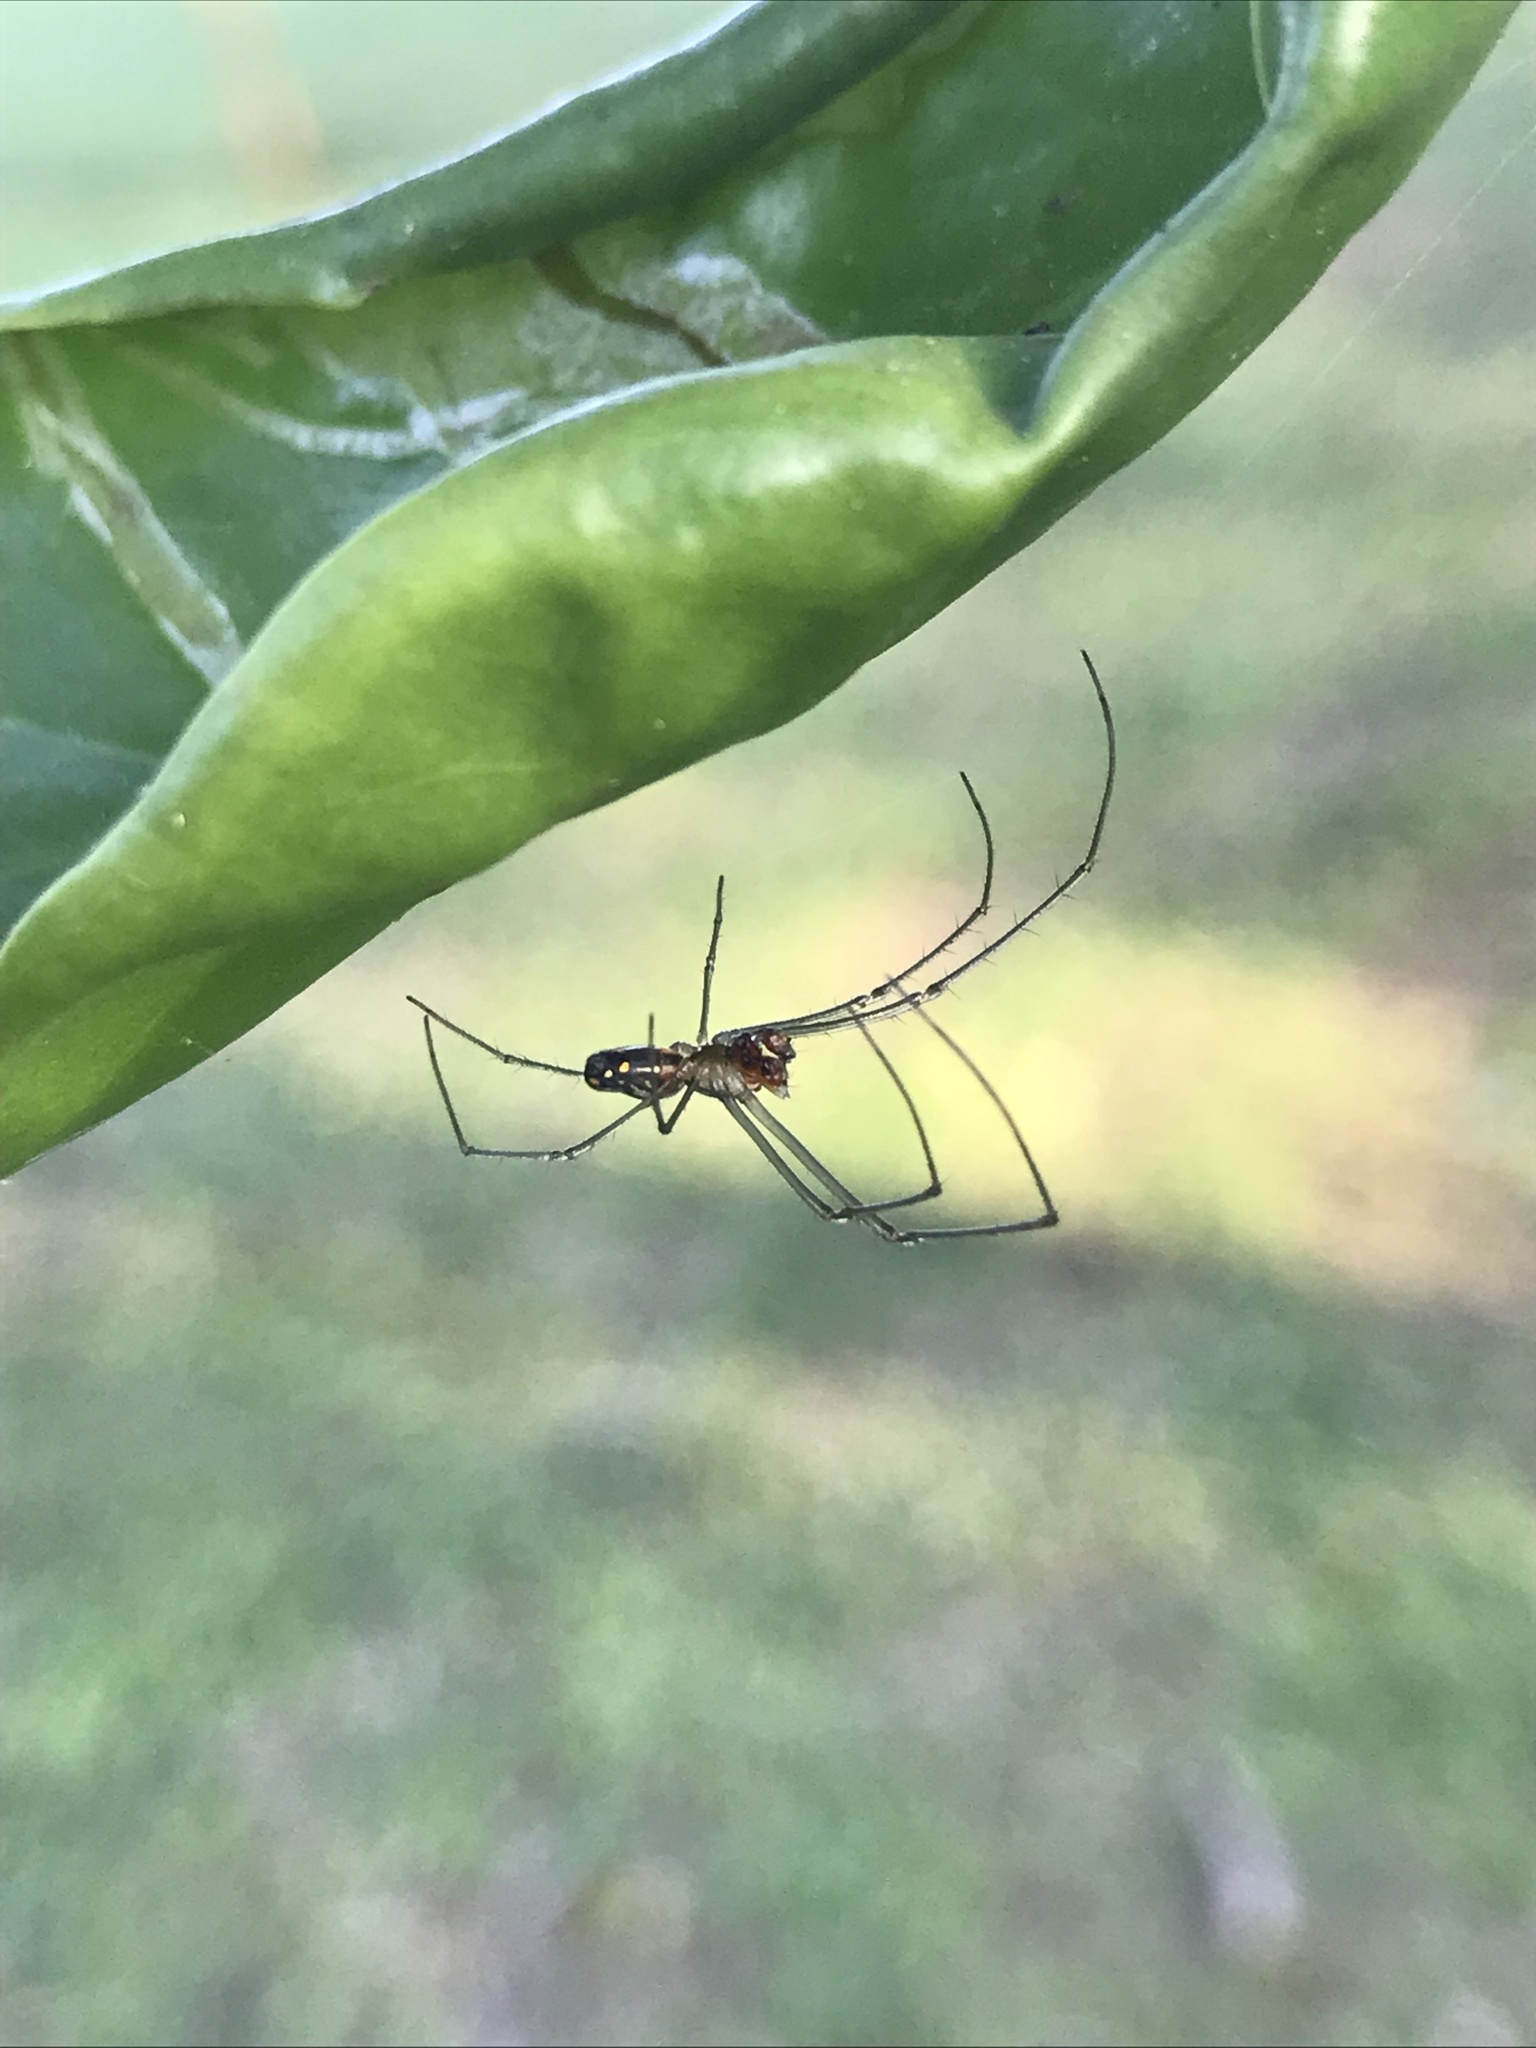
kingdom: Animalia
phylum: Arthropoda
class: Arachnida
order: Araneae
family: Tetragnathidae
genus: Leucauge
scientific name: Leucauge argyra
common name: Longjawed orb weavers
